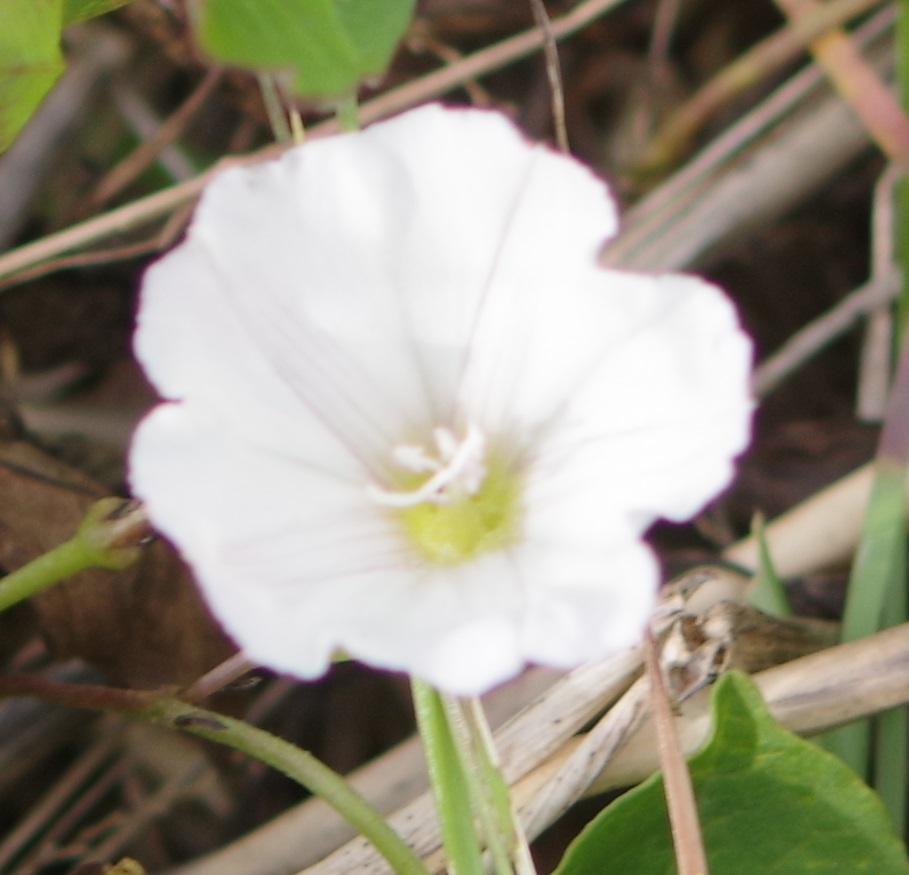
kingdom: Plantae
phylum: Tracheophyta
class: Magnoliopsida
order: Solanales
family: Convolvulaceae
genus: Convolvulus
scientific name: Convolvulus arvensis
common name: Field bindweed
